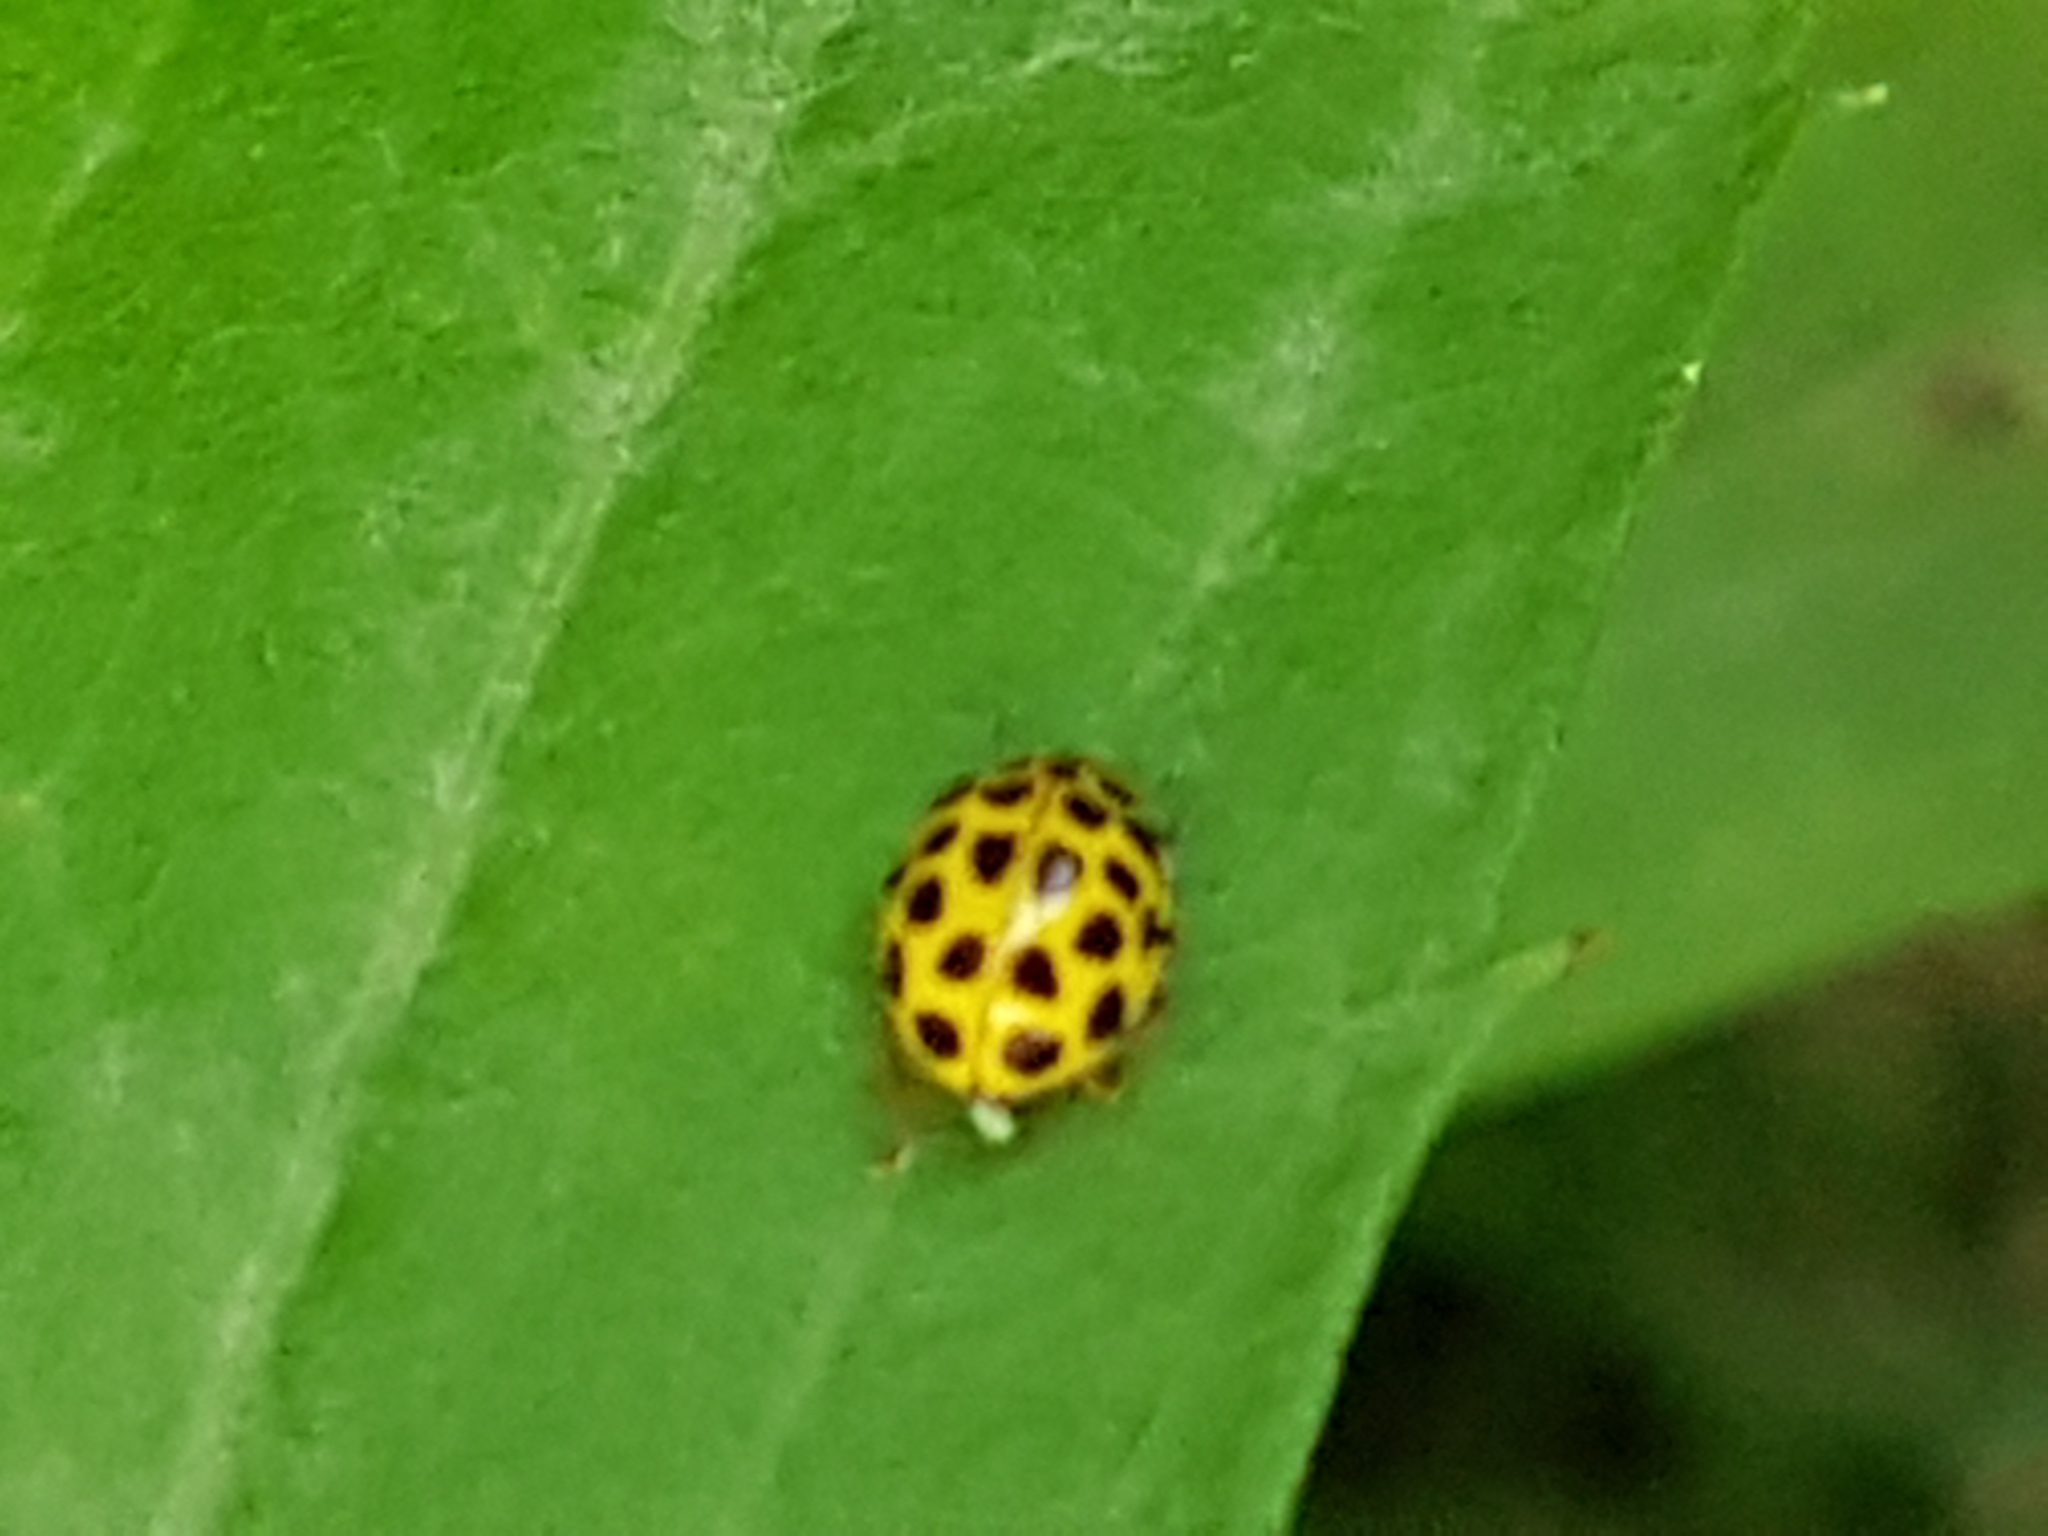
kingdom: Animalia
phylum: Arthropoda
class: Insecta
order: Coleoptera
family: Coccinellidae
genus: Psyllobora
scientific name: Psyllobora vigintiduopunctata
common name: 22-spot ladybird
